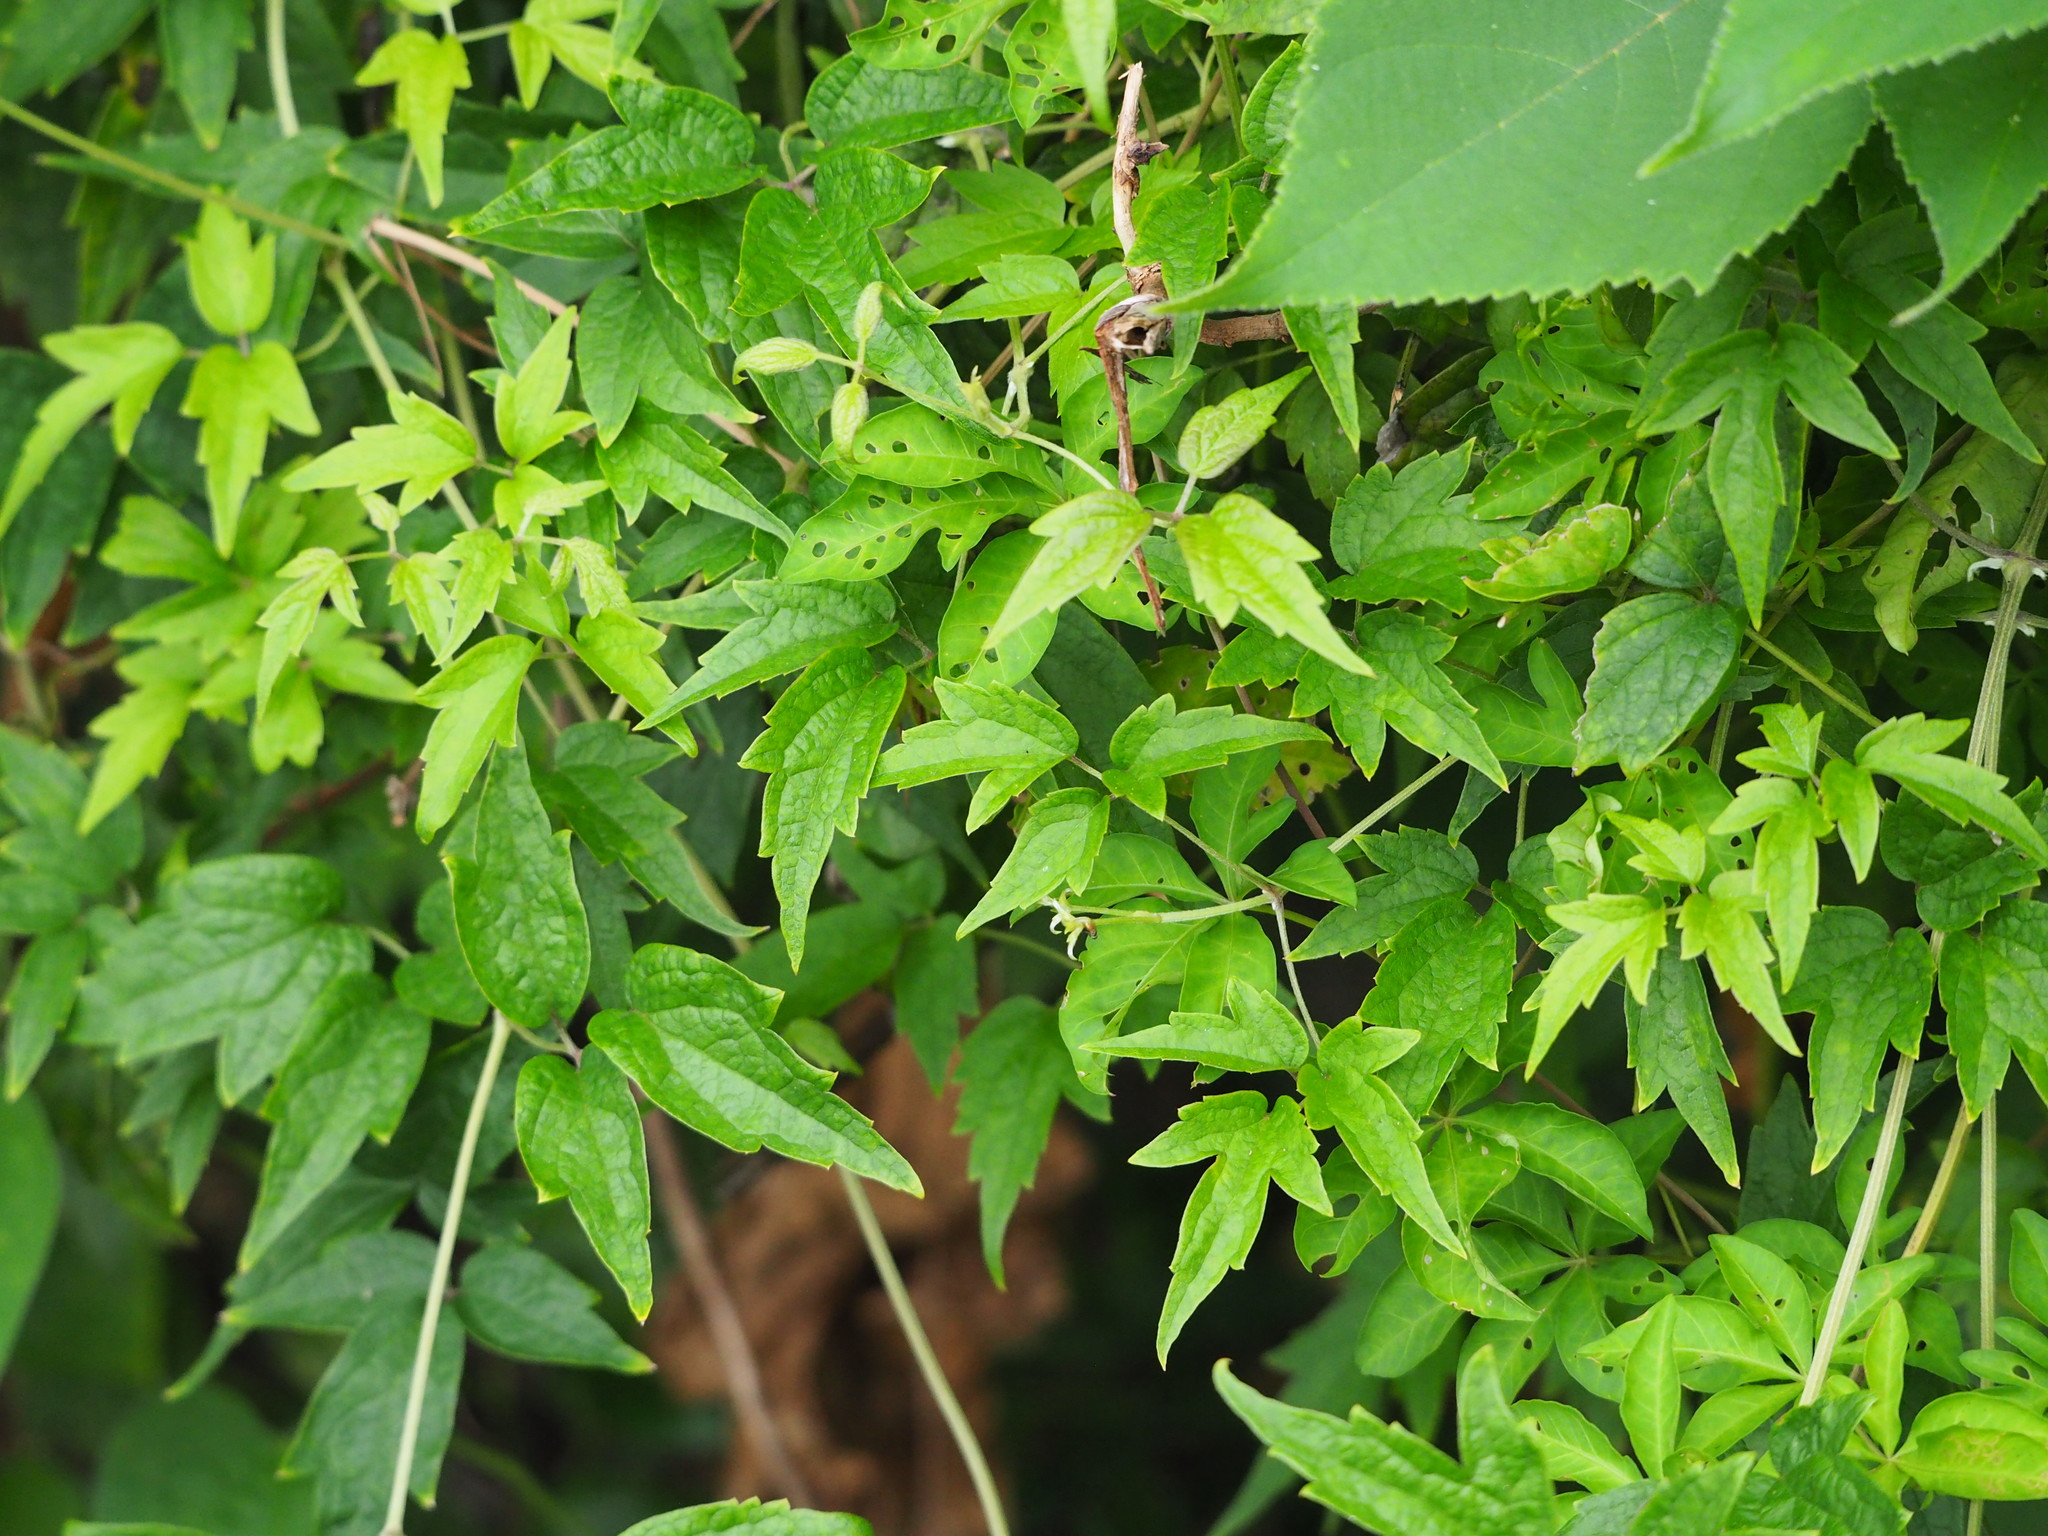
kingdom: Plantae
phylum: Tracheophyta
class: Magnoliopsida
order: Ranunculales
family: Ranunculaceae
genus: Clematis
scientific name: Clematis grata
